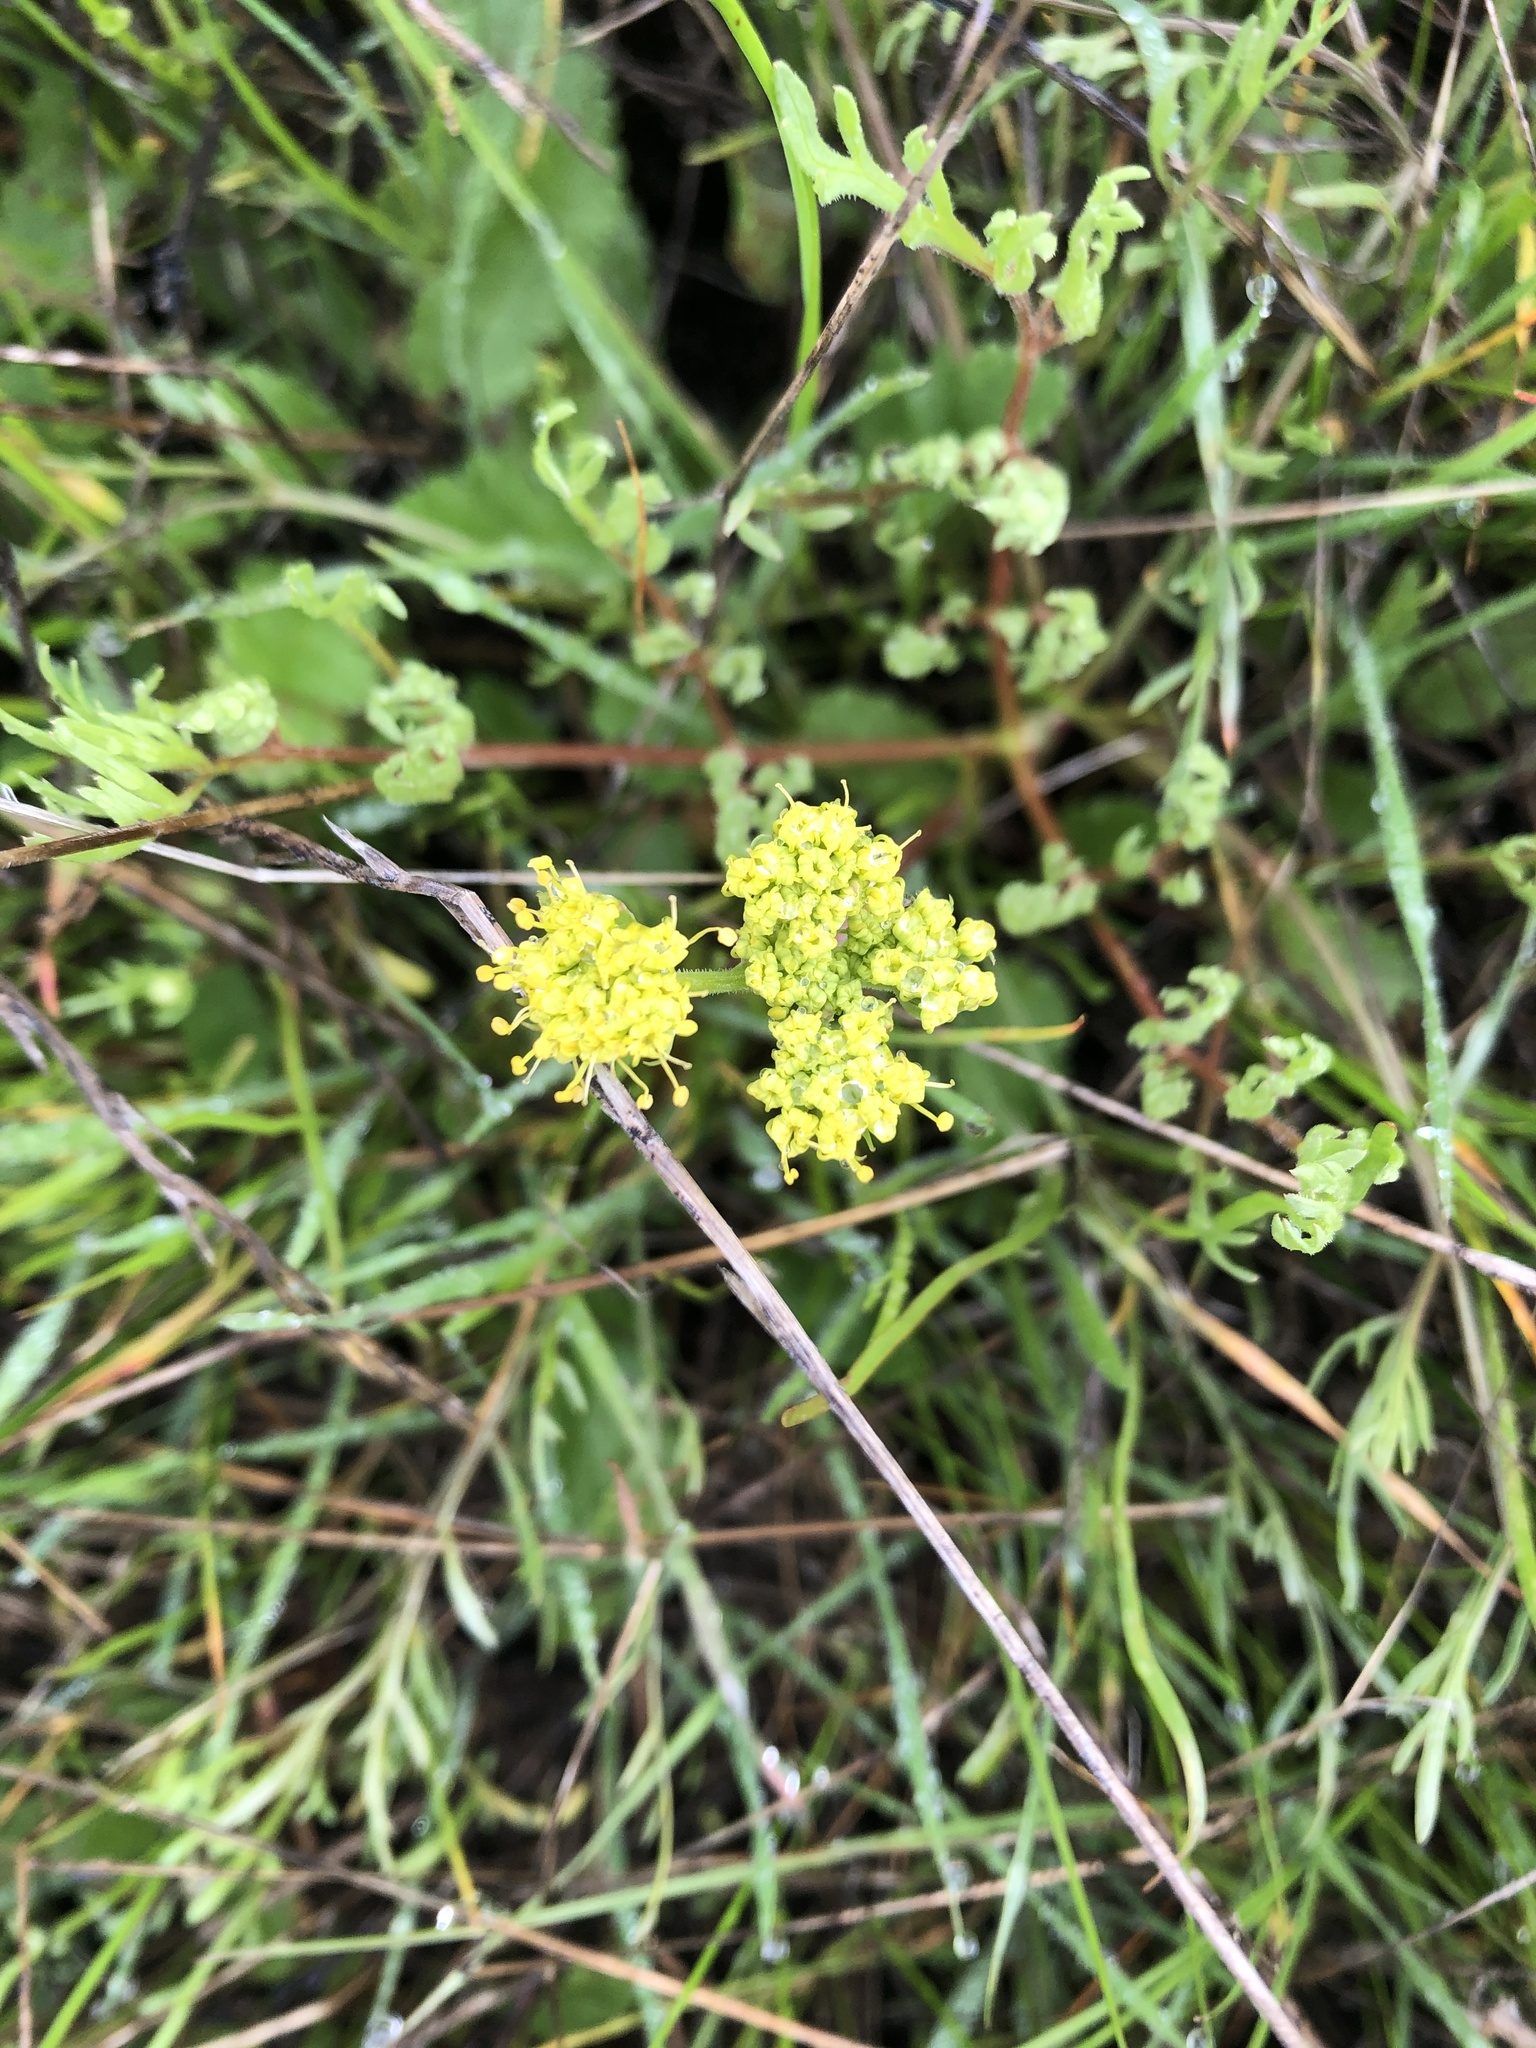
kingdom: Plantae
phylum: Tracheophyta
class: Magnoliopsida
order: Apiales
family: Apiaceae
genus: Lomatium
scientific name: Lomatium caruifolium
